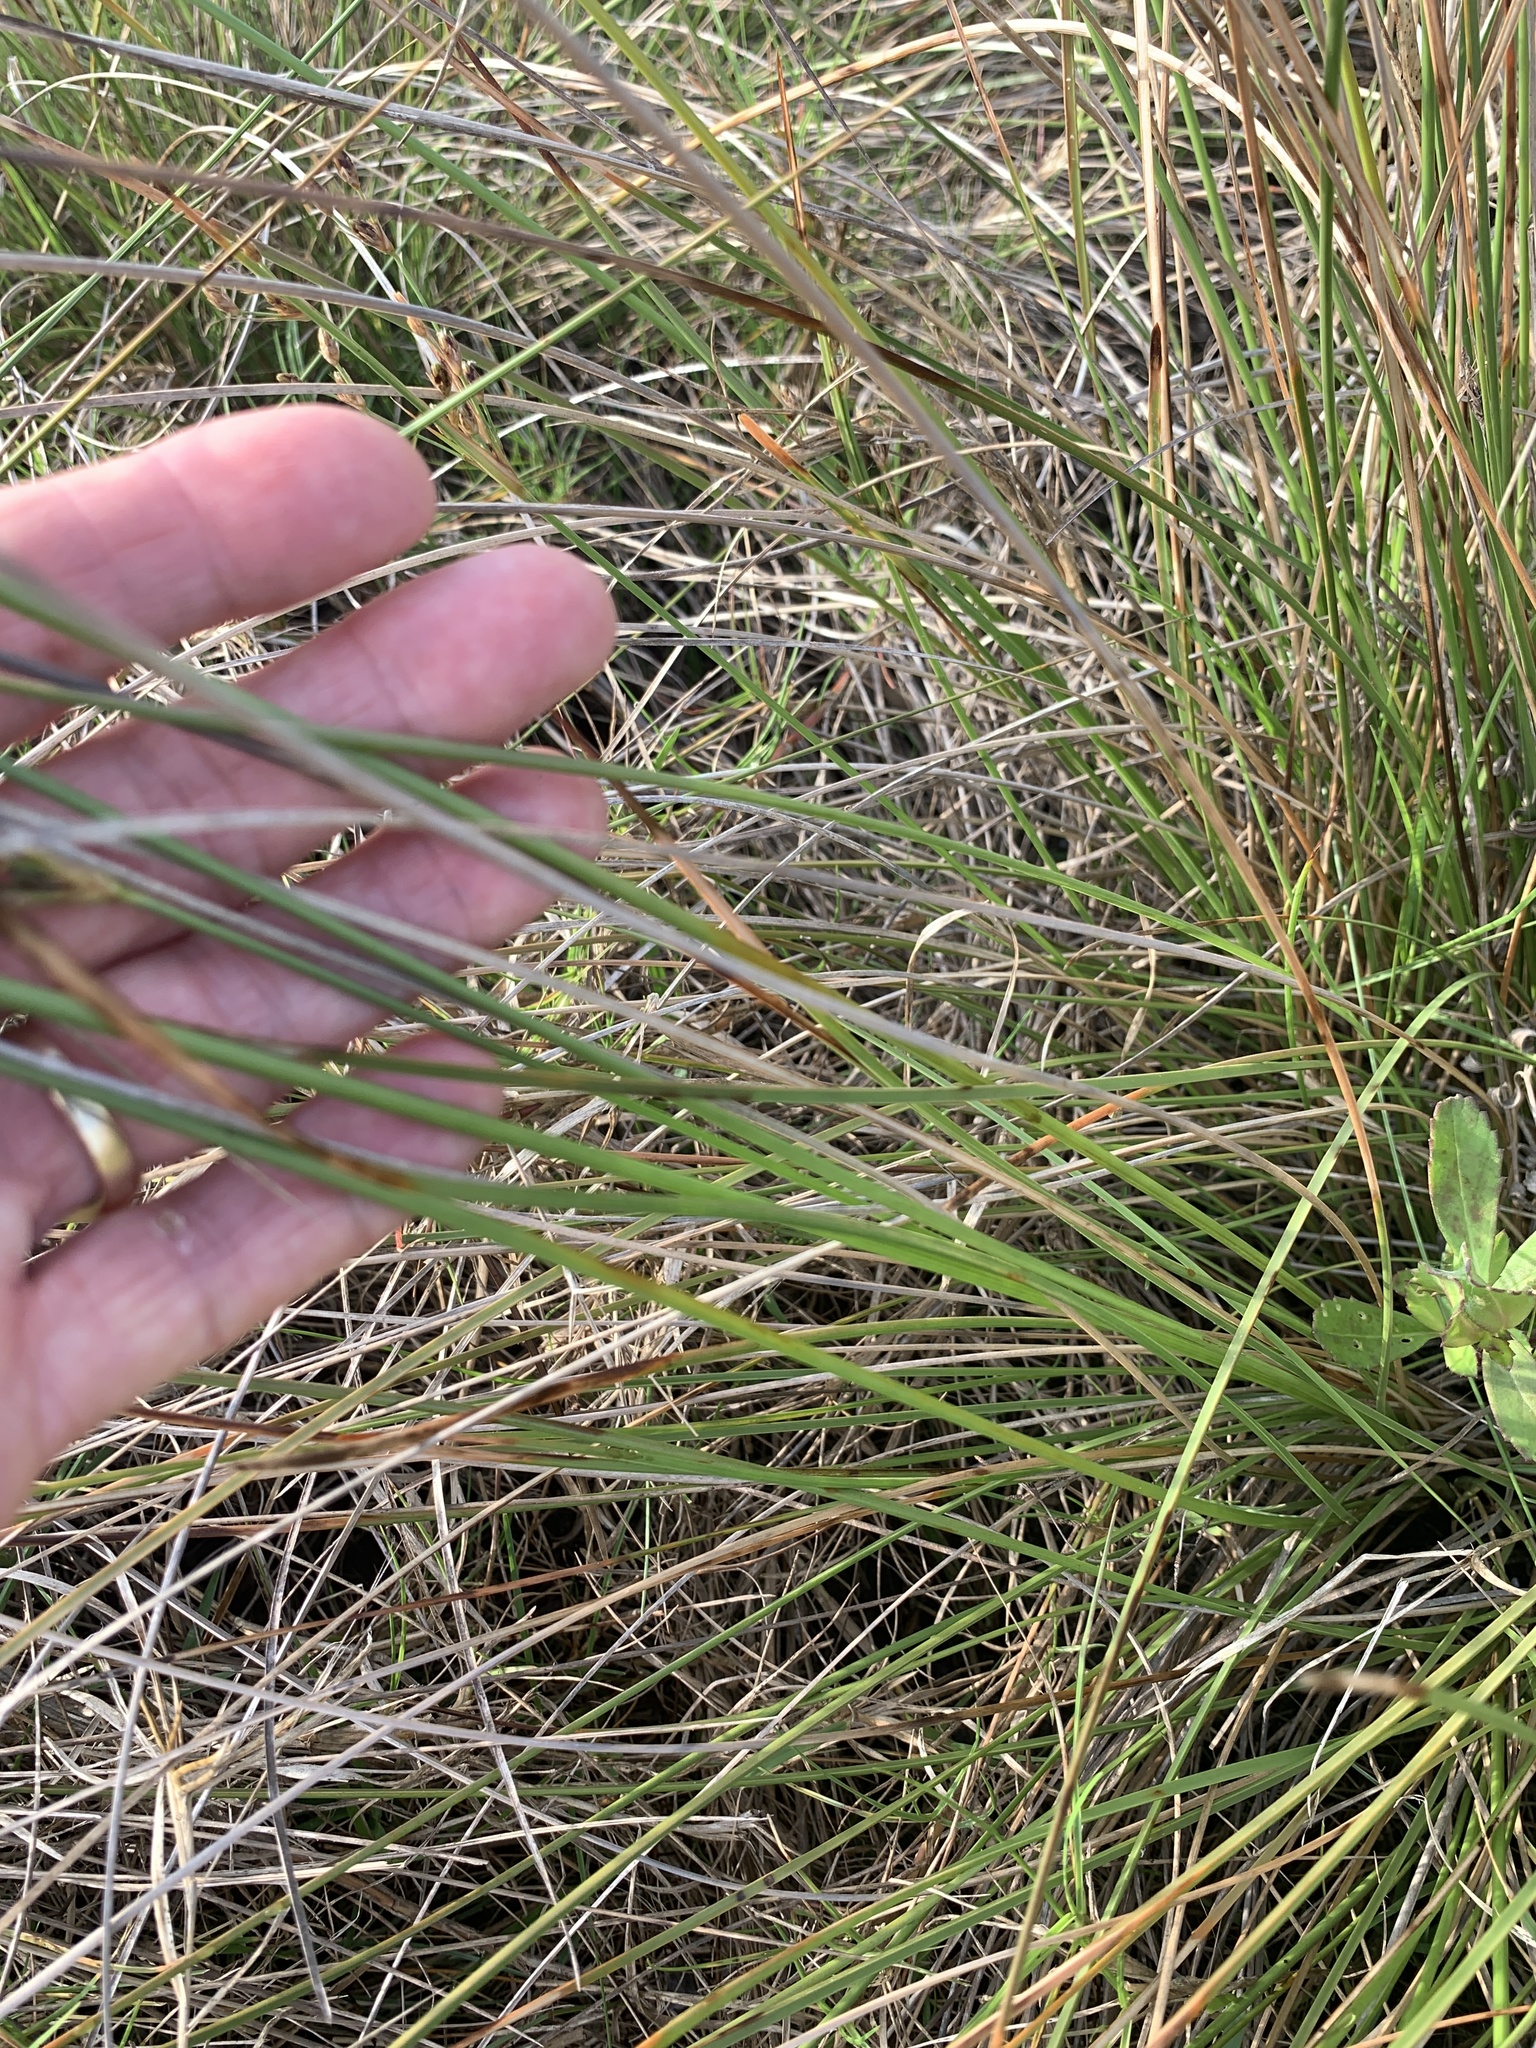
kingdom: Plantae
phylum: Tracheophyta
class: Liliopsida
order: Poales
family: Cyperaceae
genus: Fimbristylis
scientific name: Fimbristylis spadicea
